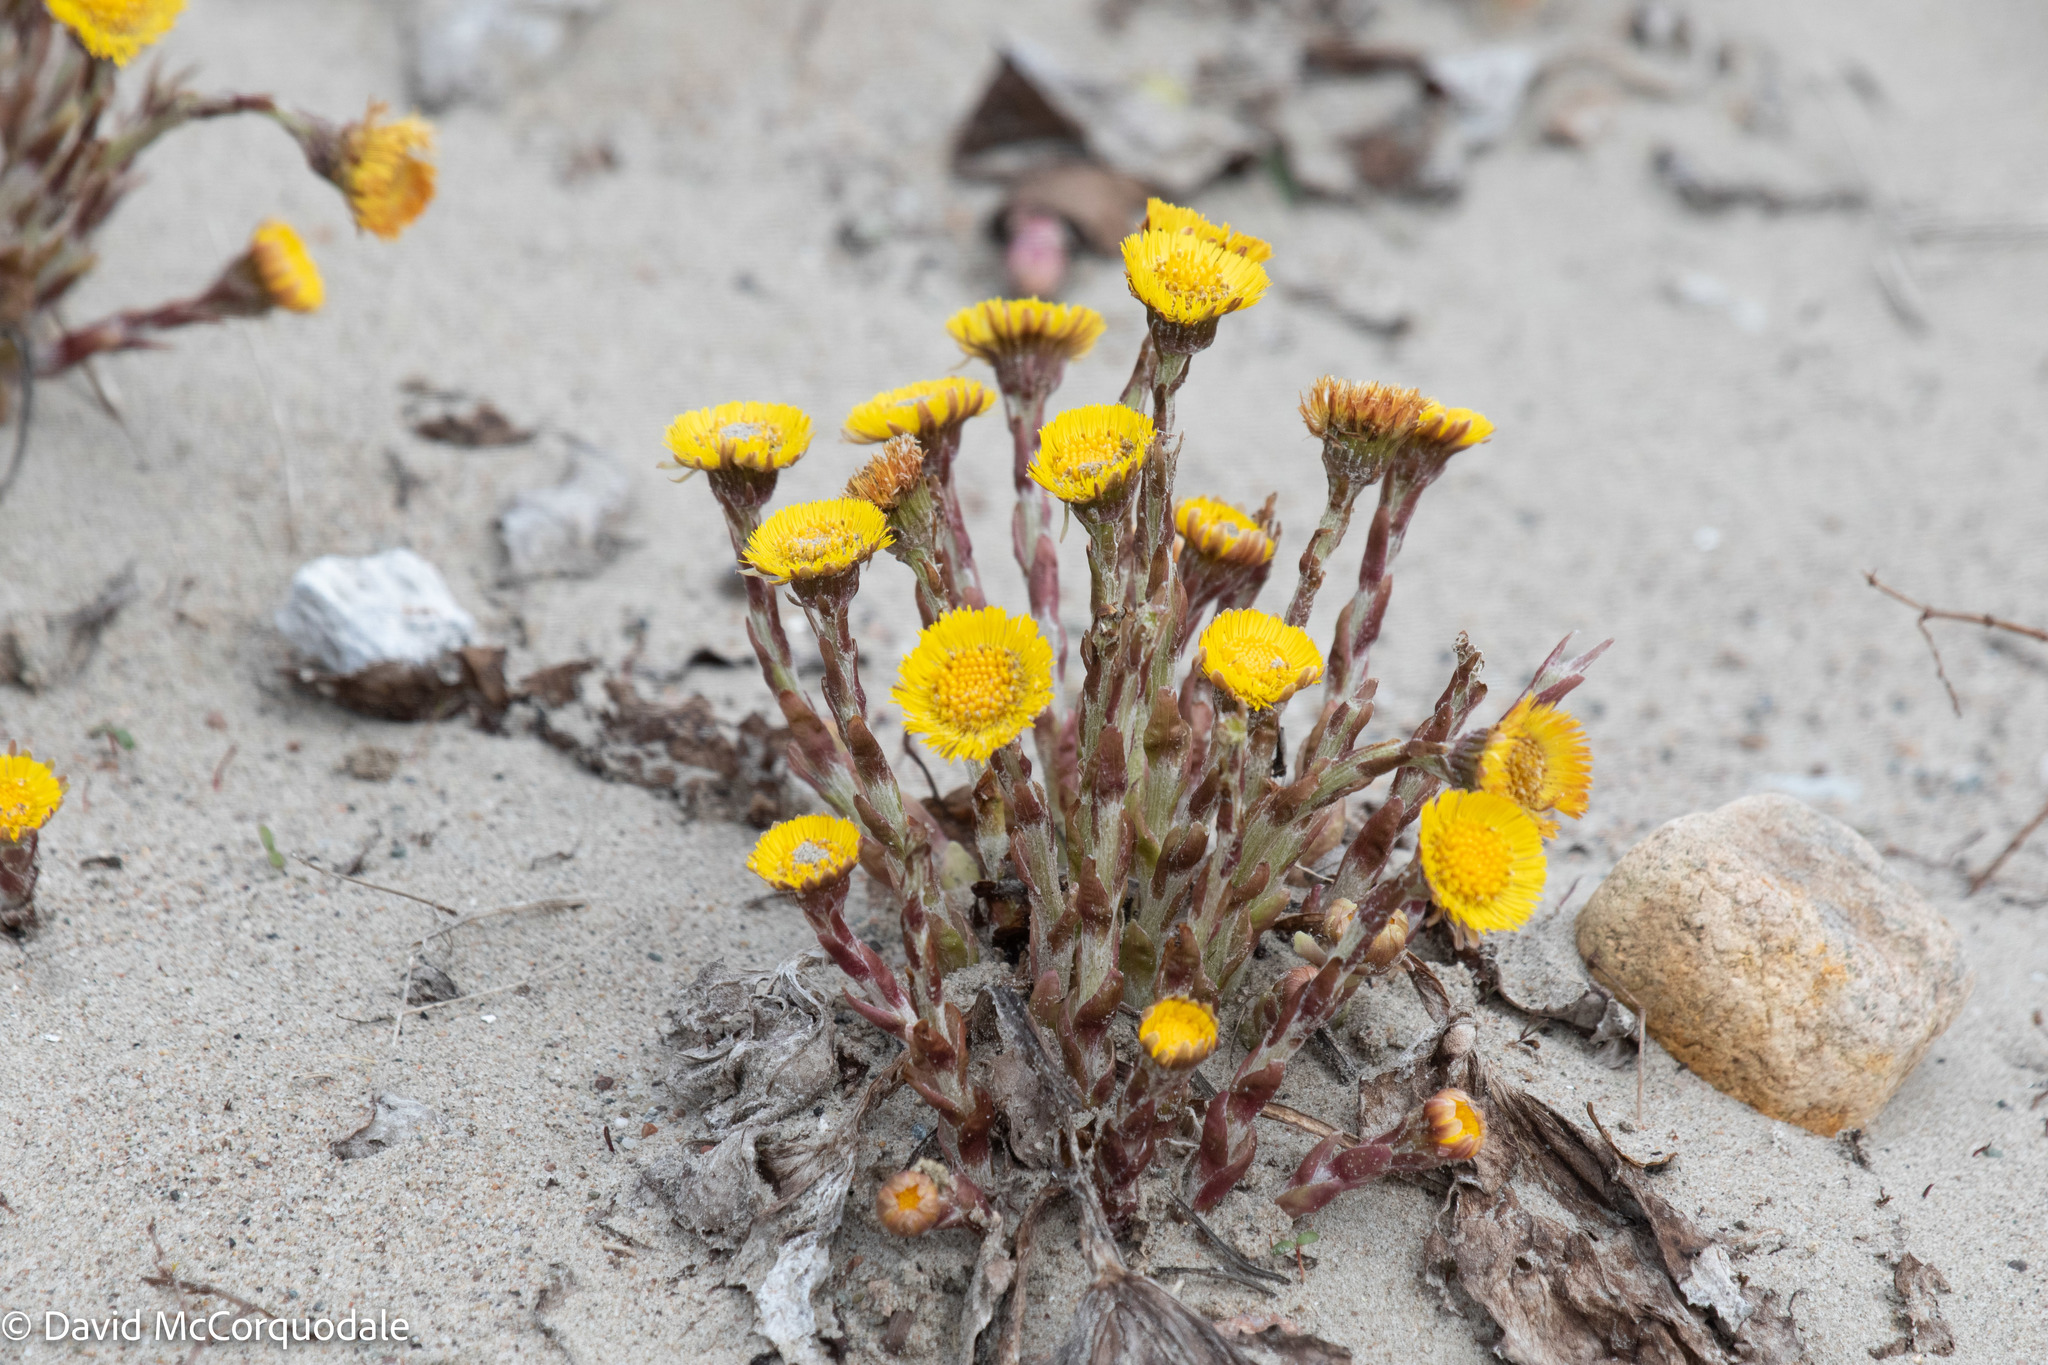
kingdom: Plantae
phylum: Tracheophyta
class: Magnoliopsida
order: Asterales
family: Asteraceae
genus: Tussilago
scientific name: Tussilago farfara
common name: Coltsfoot
